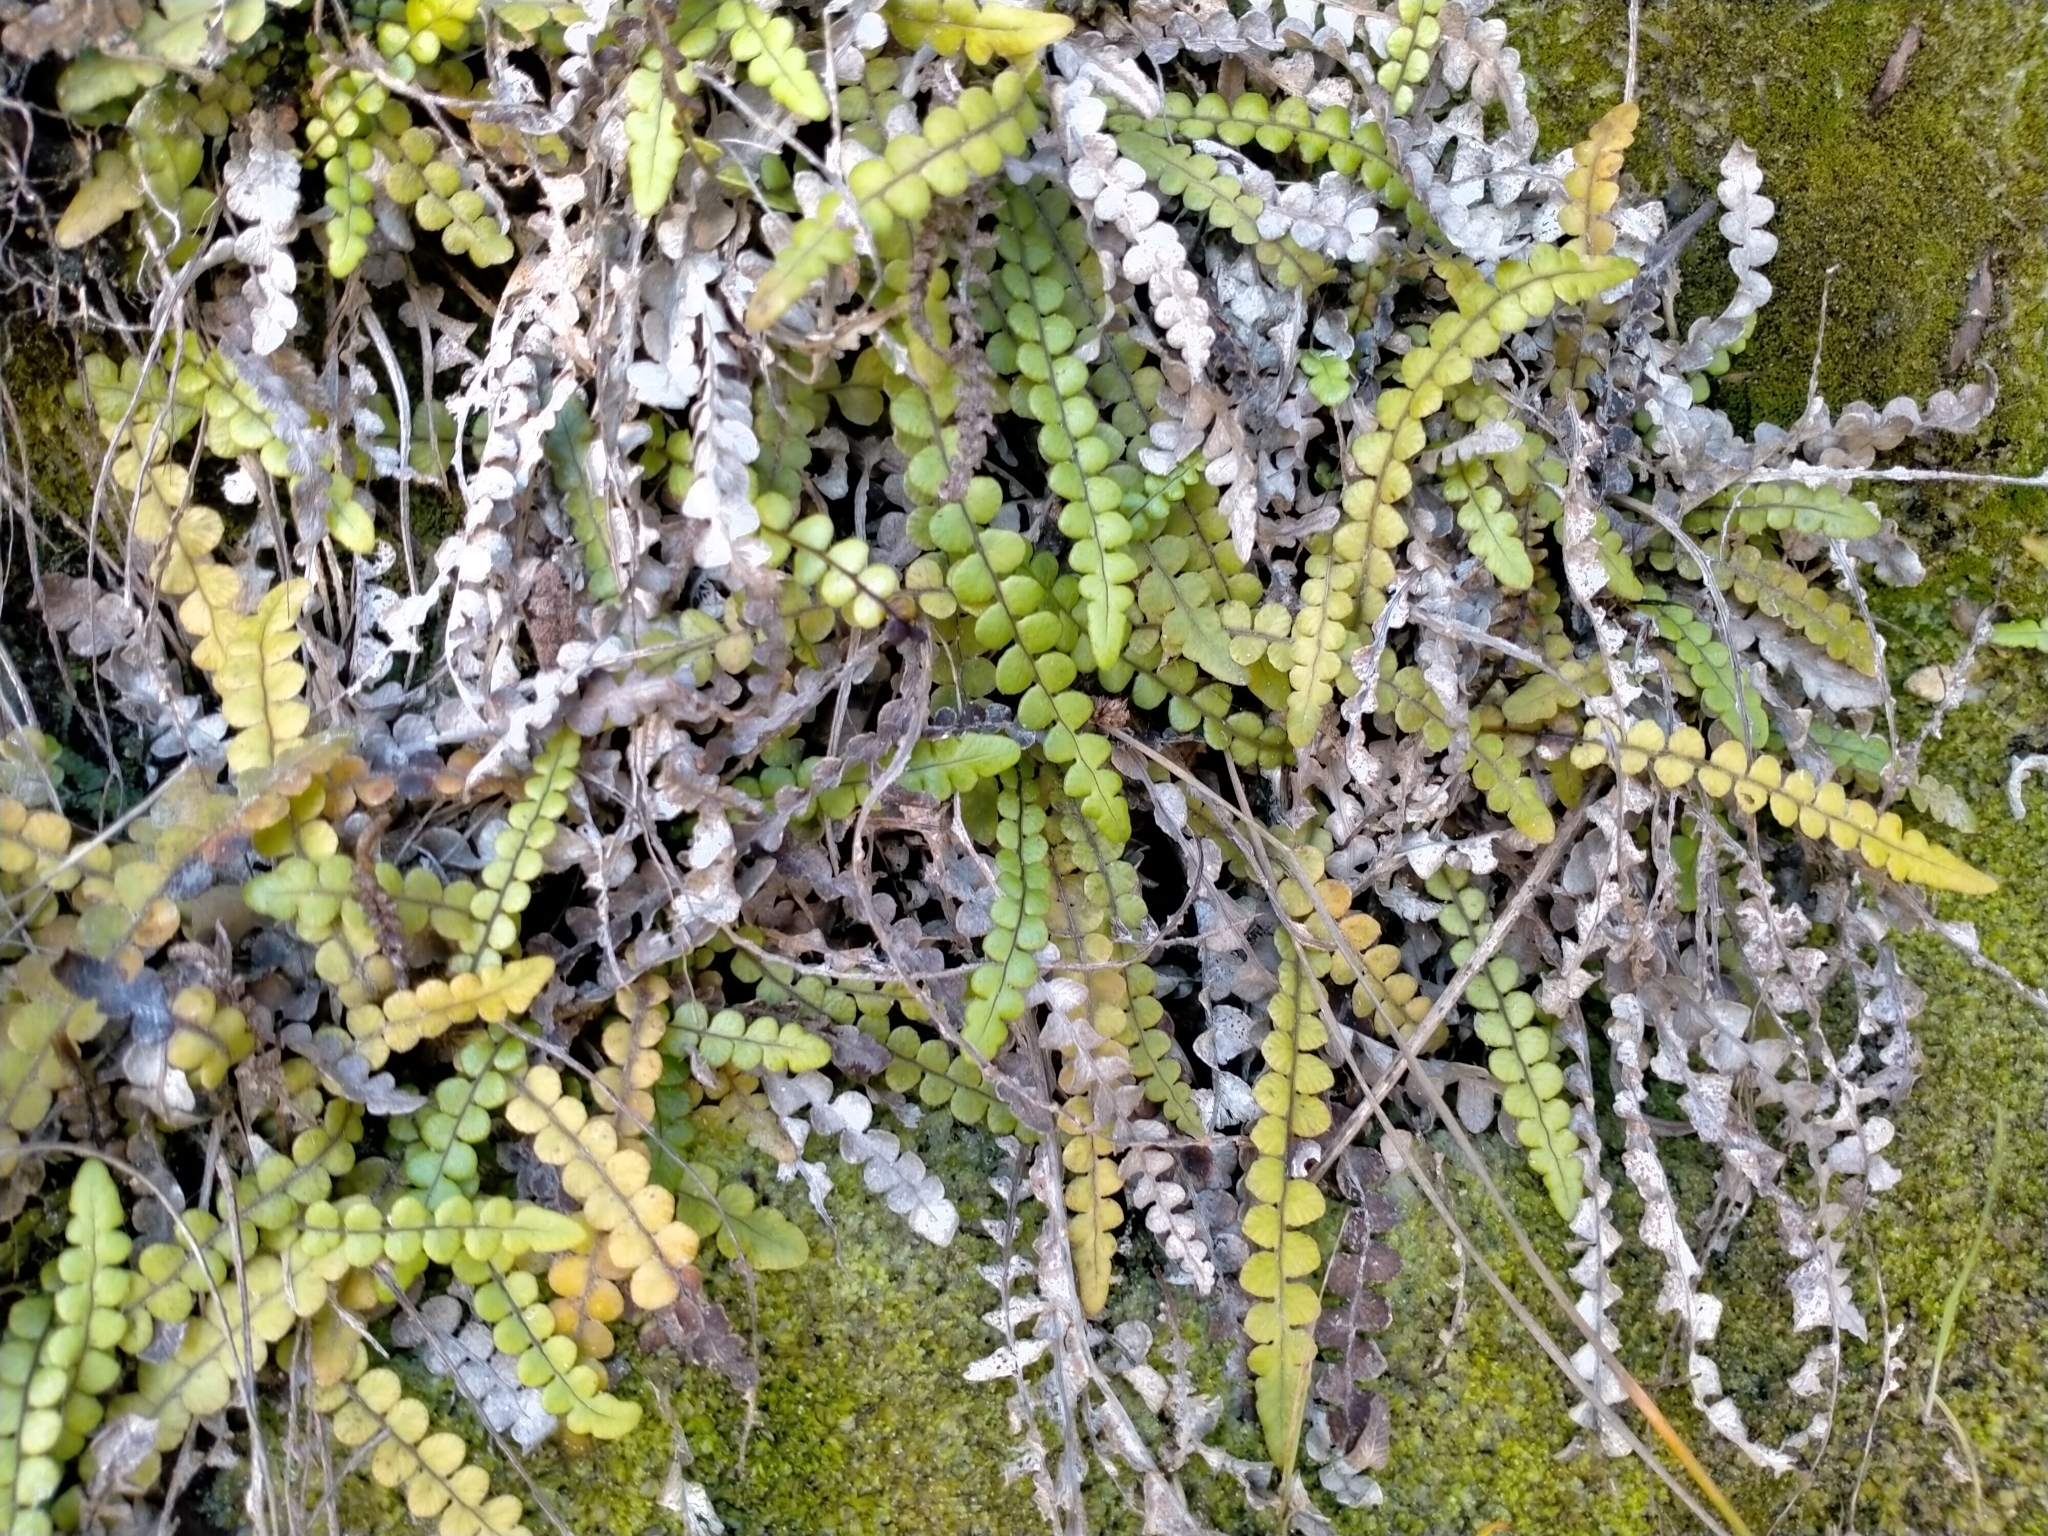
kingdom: Plantae
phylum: Tracheophyta
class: Polypodiopsida
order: Polypodiales
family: Blechnaceae
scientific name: Blechnaceae
